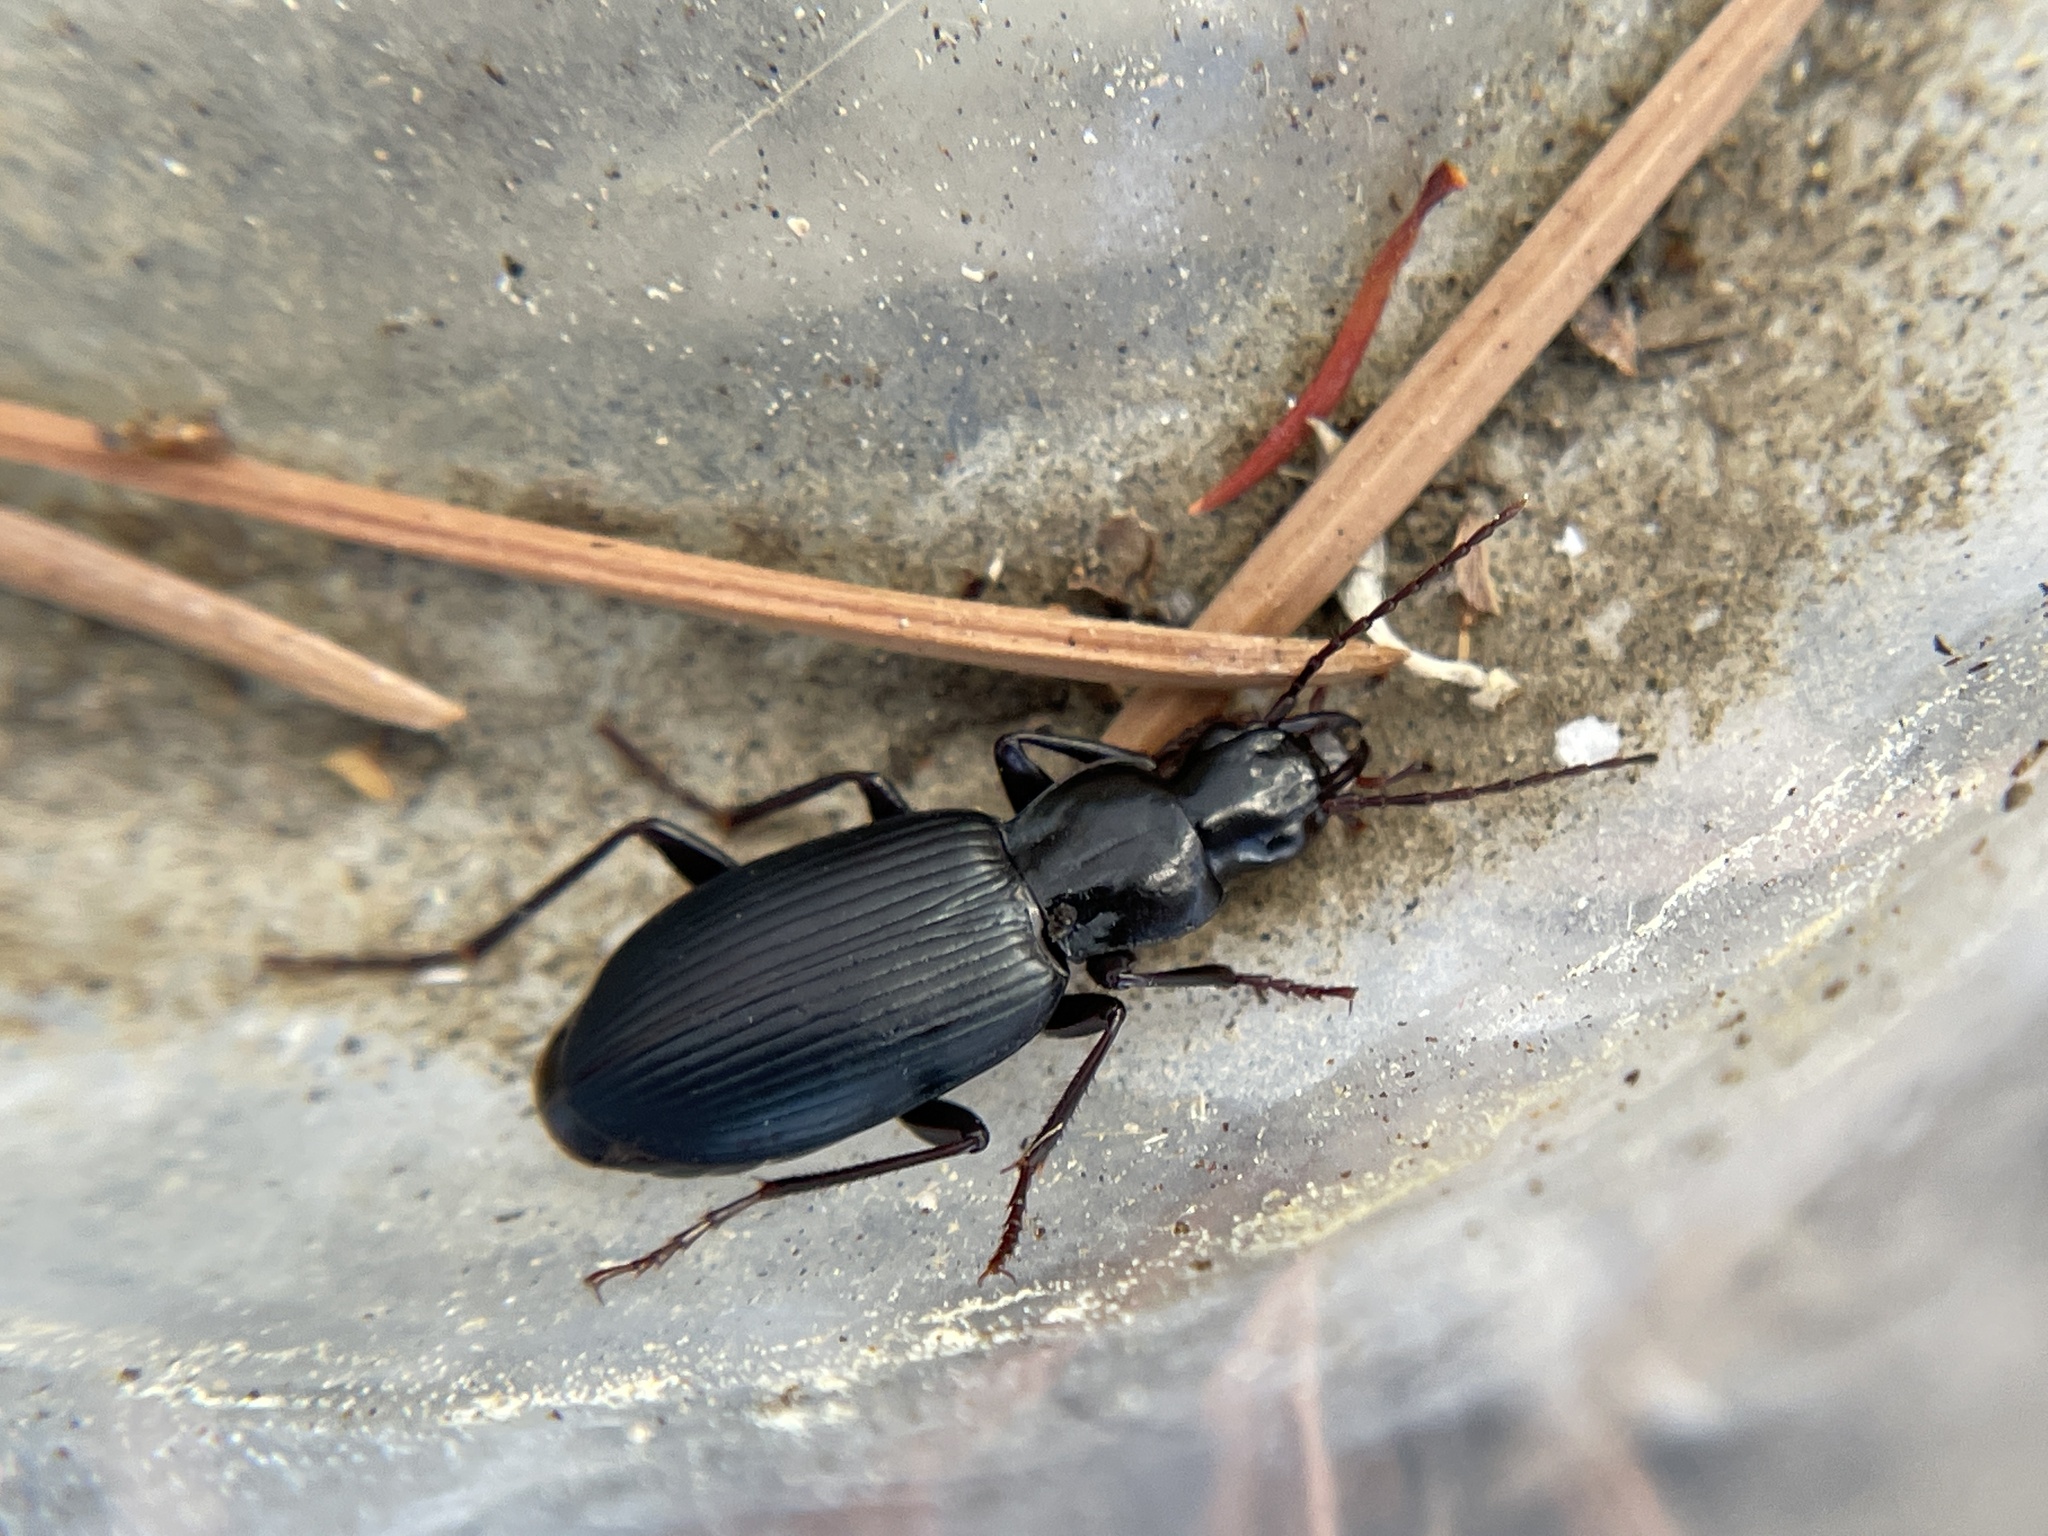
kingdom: Animalia
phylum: Arthropoda
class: Insecta
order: Coleoptera
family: Carabidae
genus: Laemostenus
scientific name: Laemostenus complanatus
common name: Cosmopolitan ground beetle
